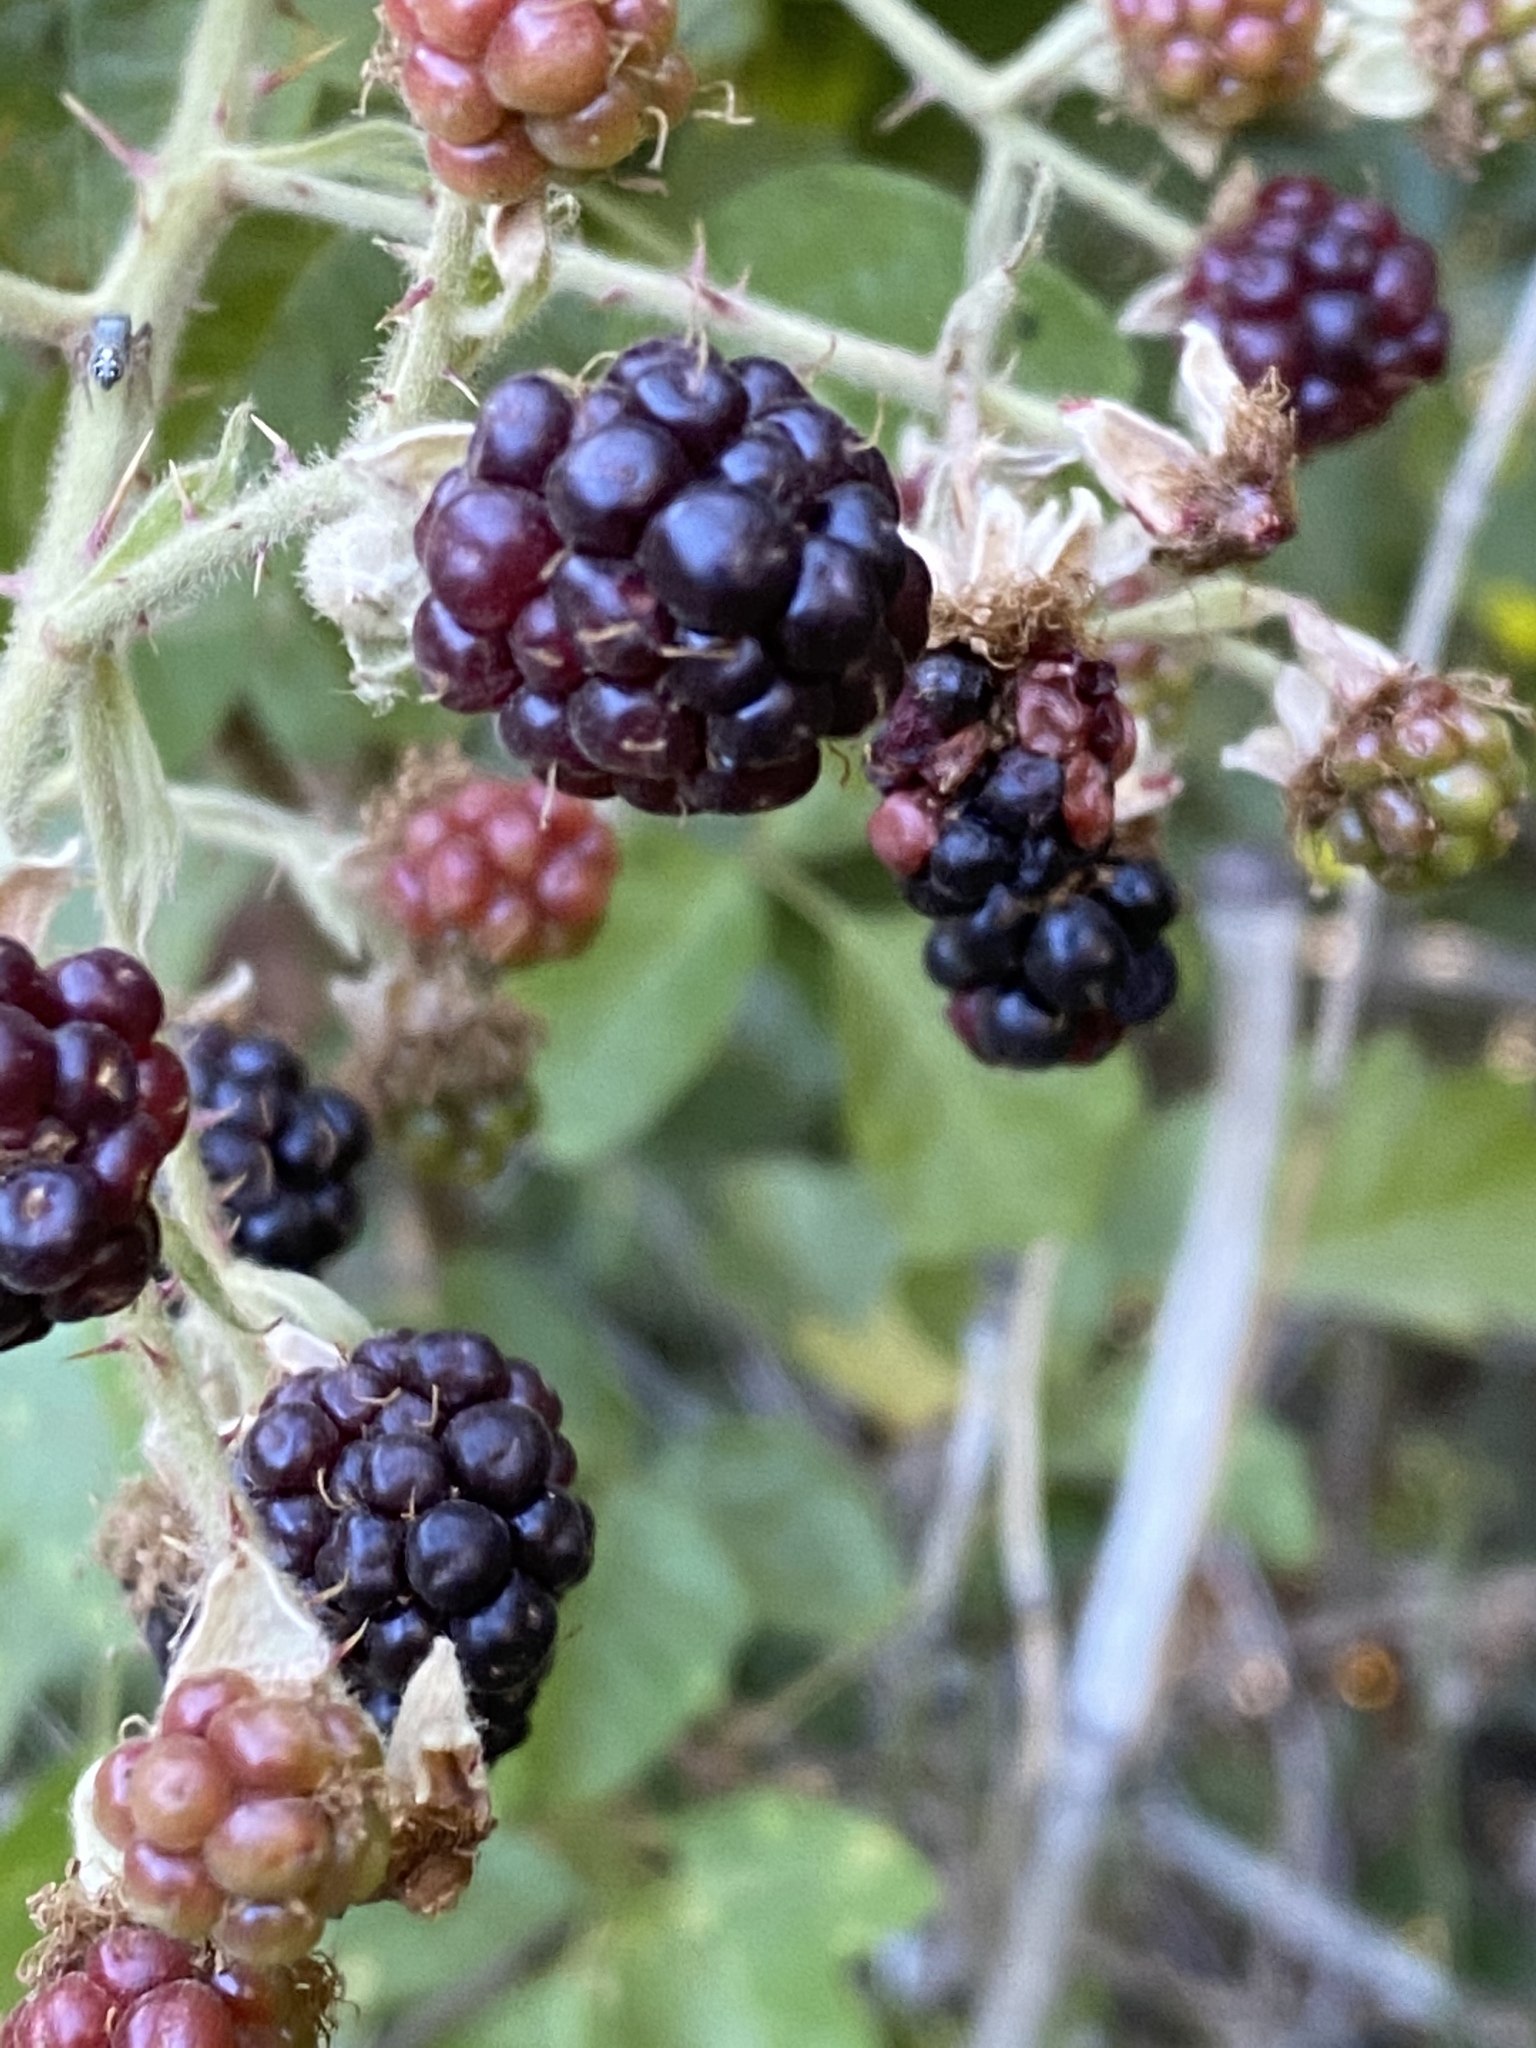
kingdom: Plantae
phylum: Tracheophyta
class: Magnoliopsida
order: Rosales
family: Rosaceae
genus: Rubus
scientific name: Rubus bifrons
